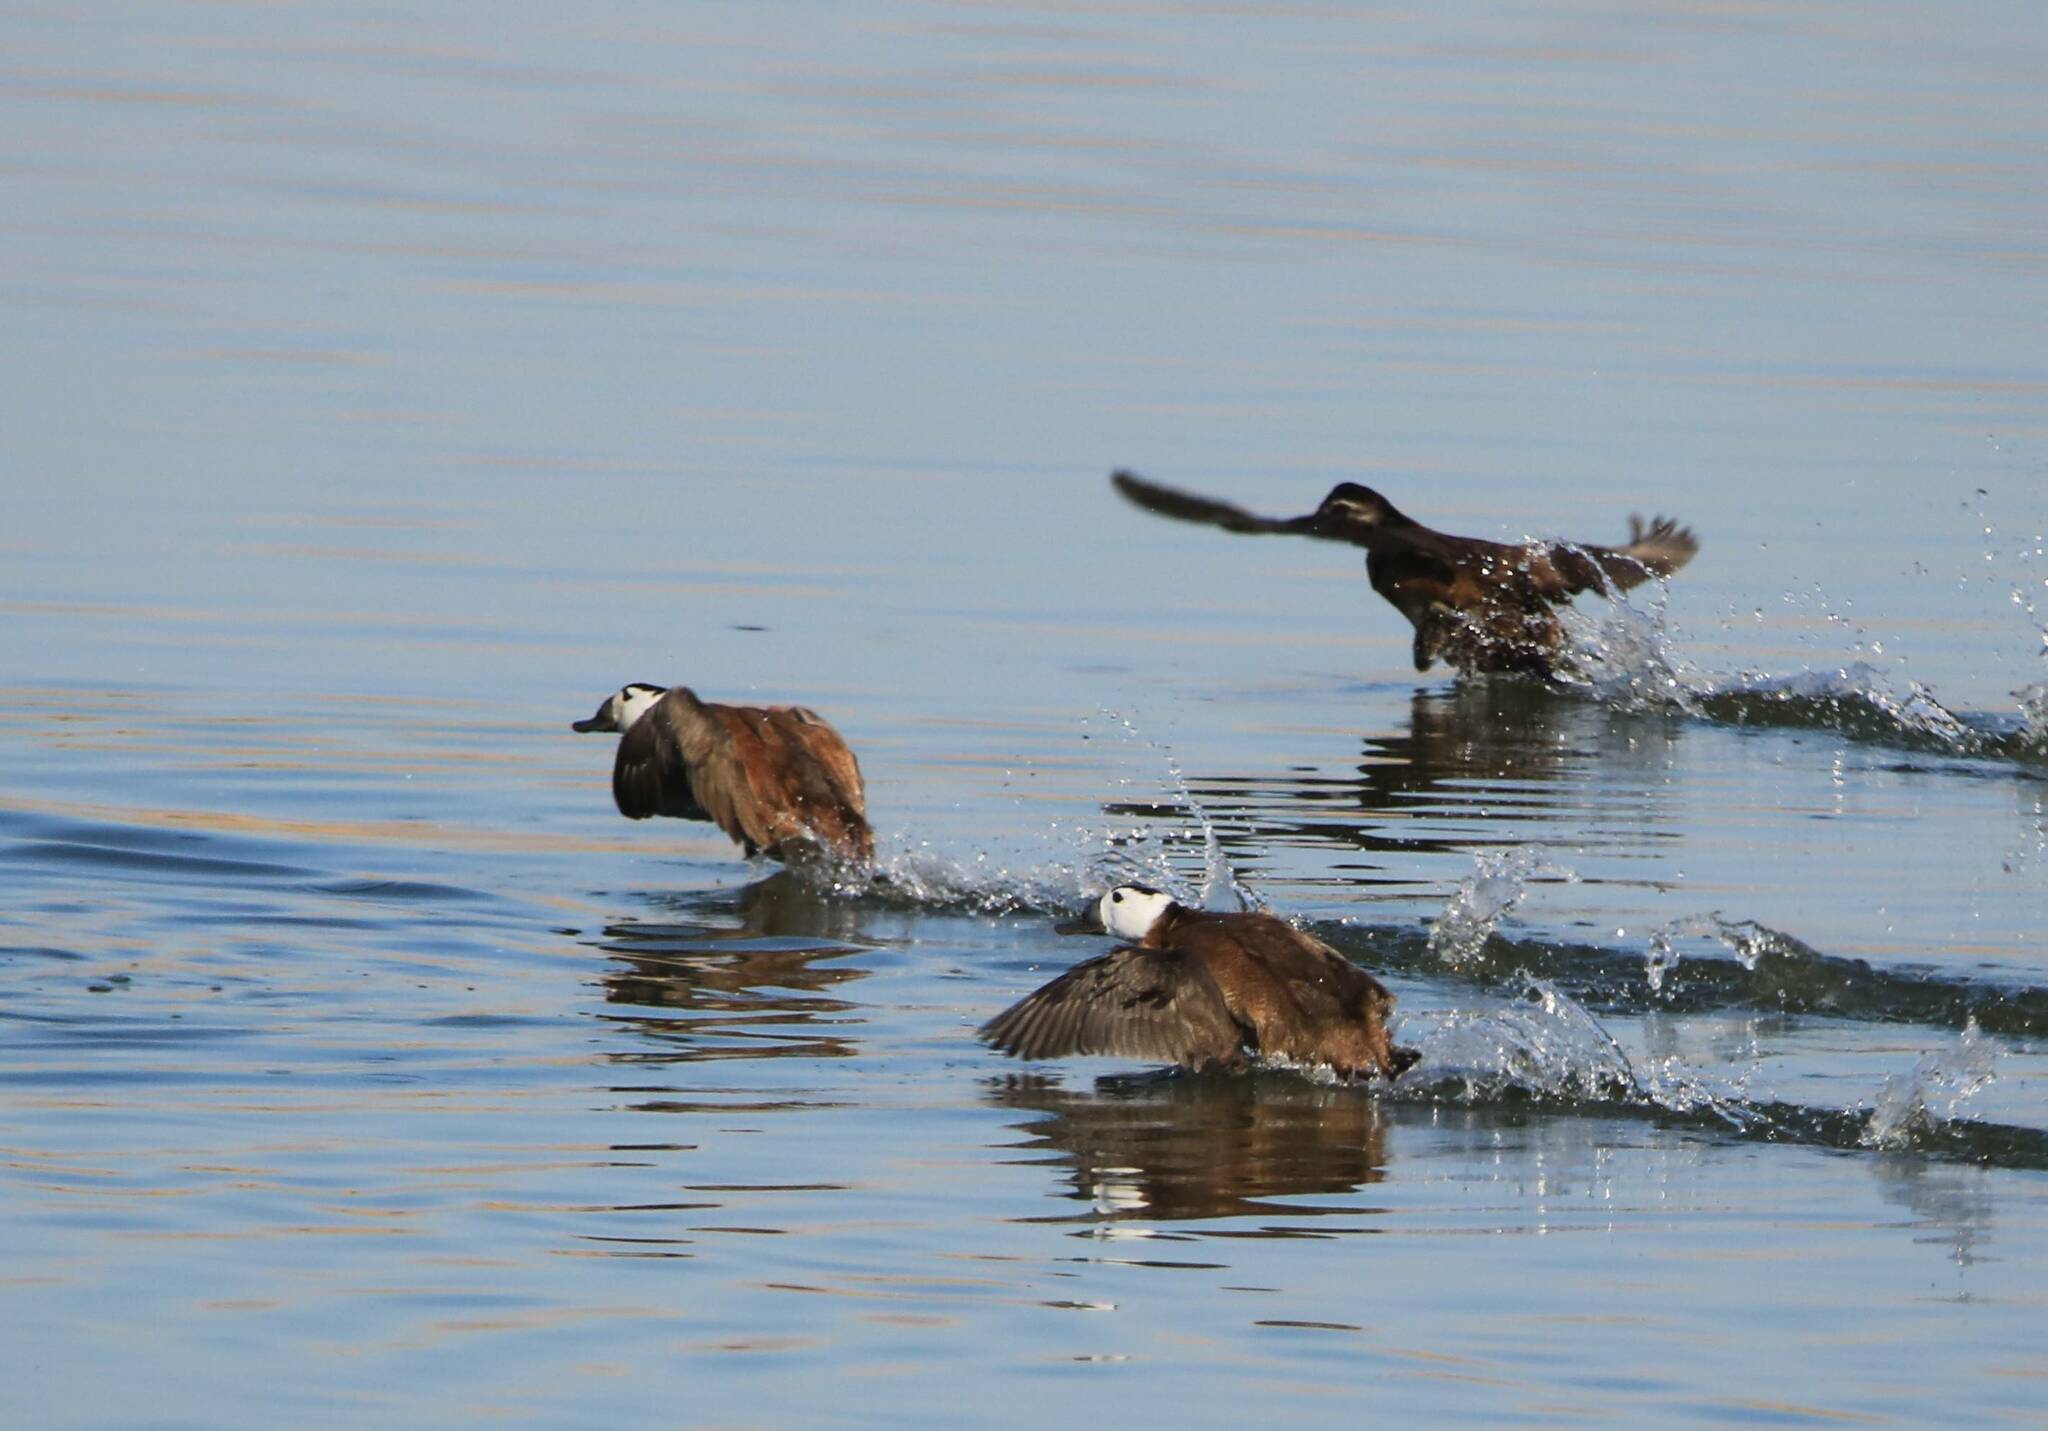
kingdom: Animalia
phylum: Chordata
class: Aves
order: Anseriformes
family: Anatidae
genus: Oxyura
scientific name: Oxyura leucocephala
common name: White-headed duck
